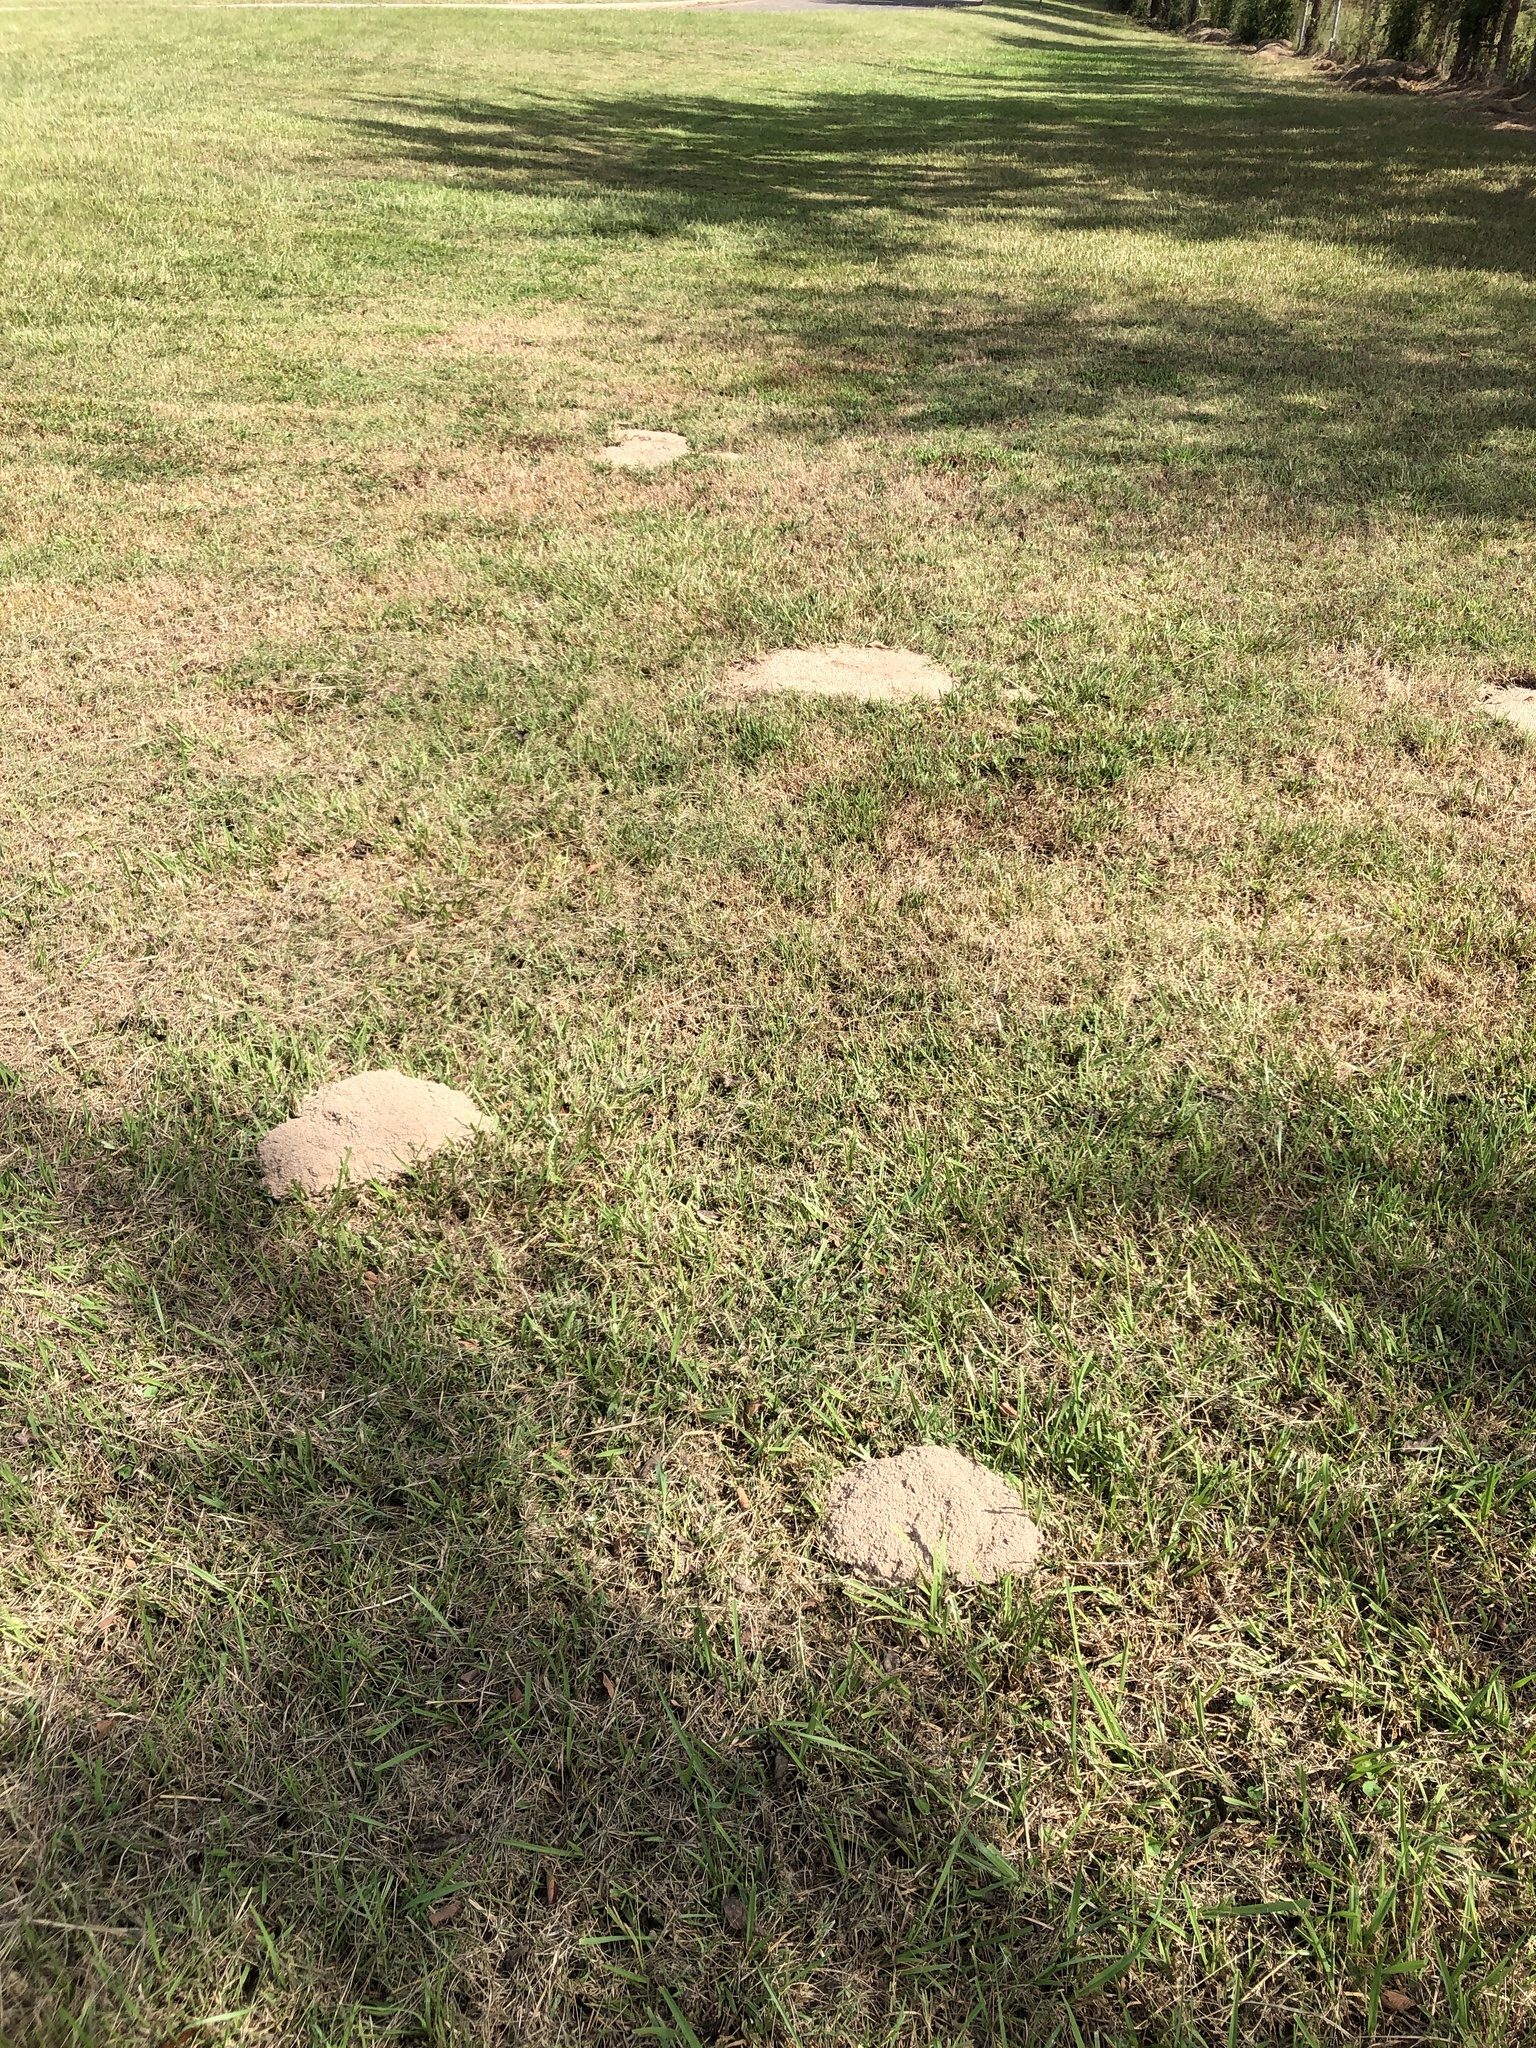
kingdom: Animalia
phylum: Chordata
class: Mammalia
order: Rodentia
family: Geomyidae
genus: Geomys
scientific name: Geomys breviceps
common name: Baird's pocket gopher
